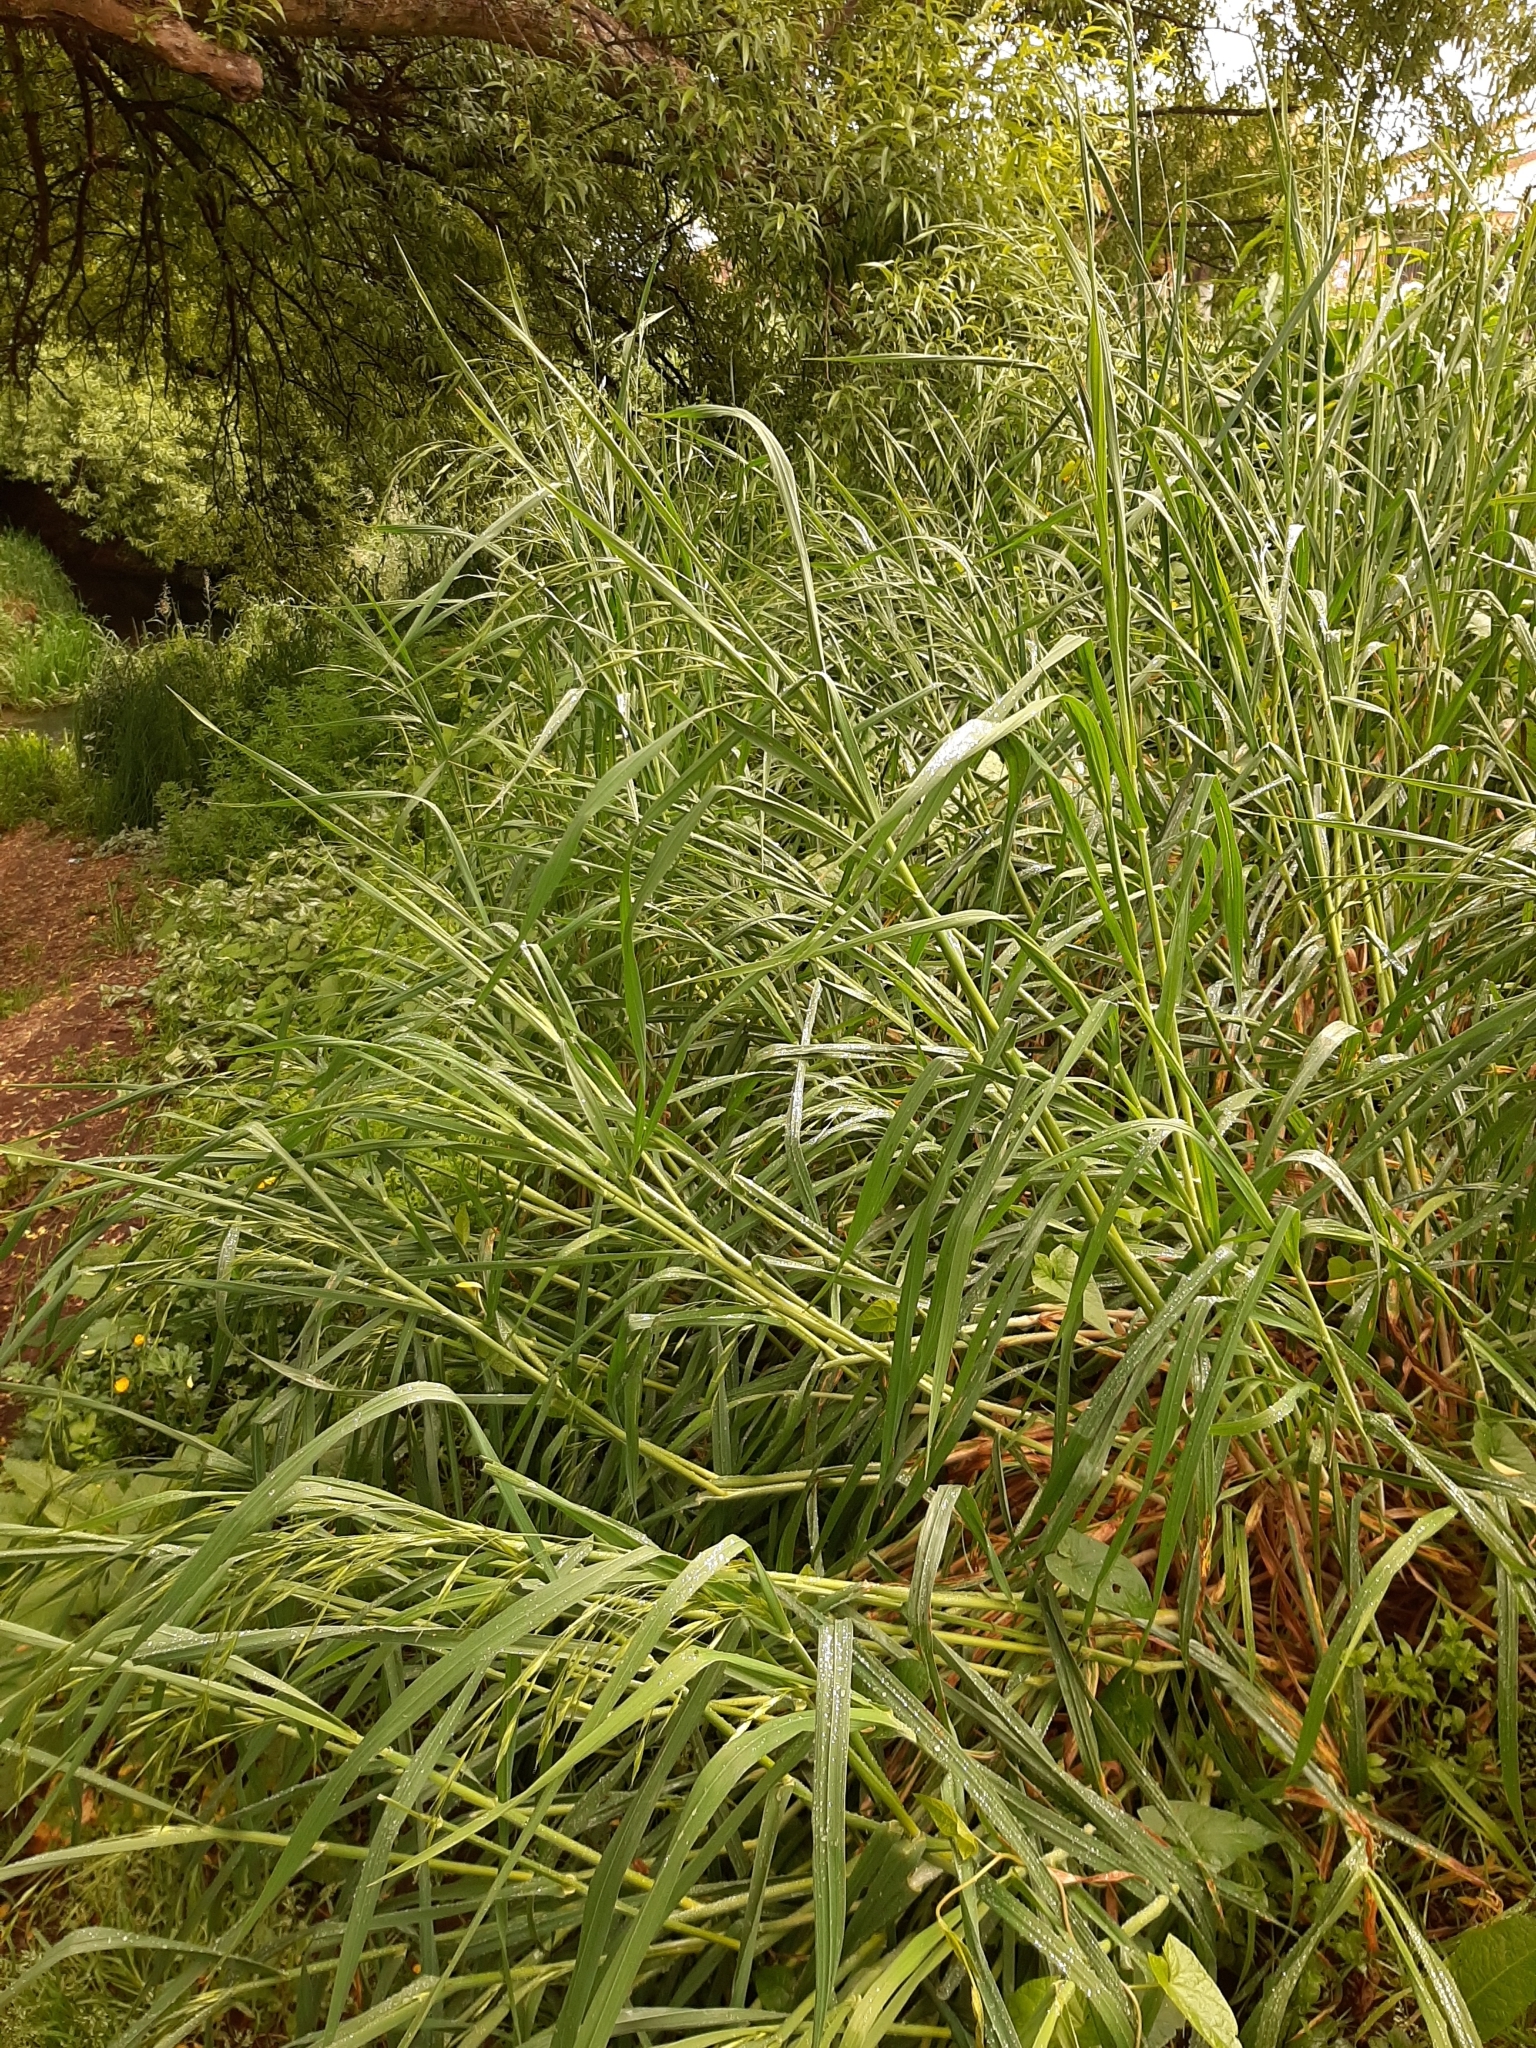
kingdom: Plantae
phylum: Tracheophyta
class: Liliopsida
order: Poales
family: Poaceae
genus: Bromus
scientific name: Bromus catharticus
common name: Rescuegrass
